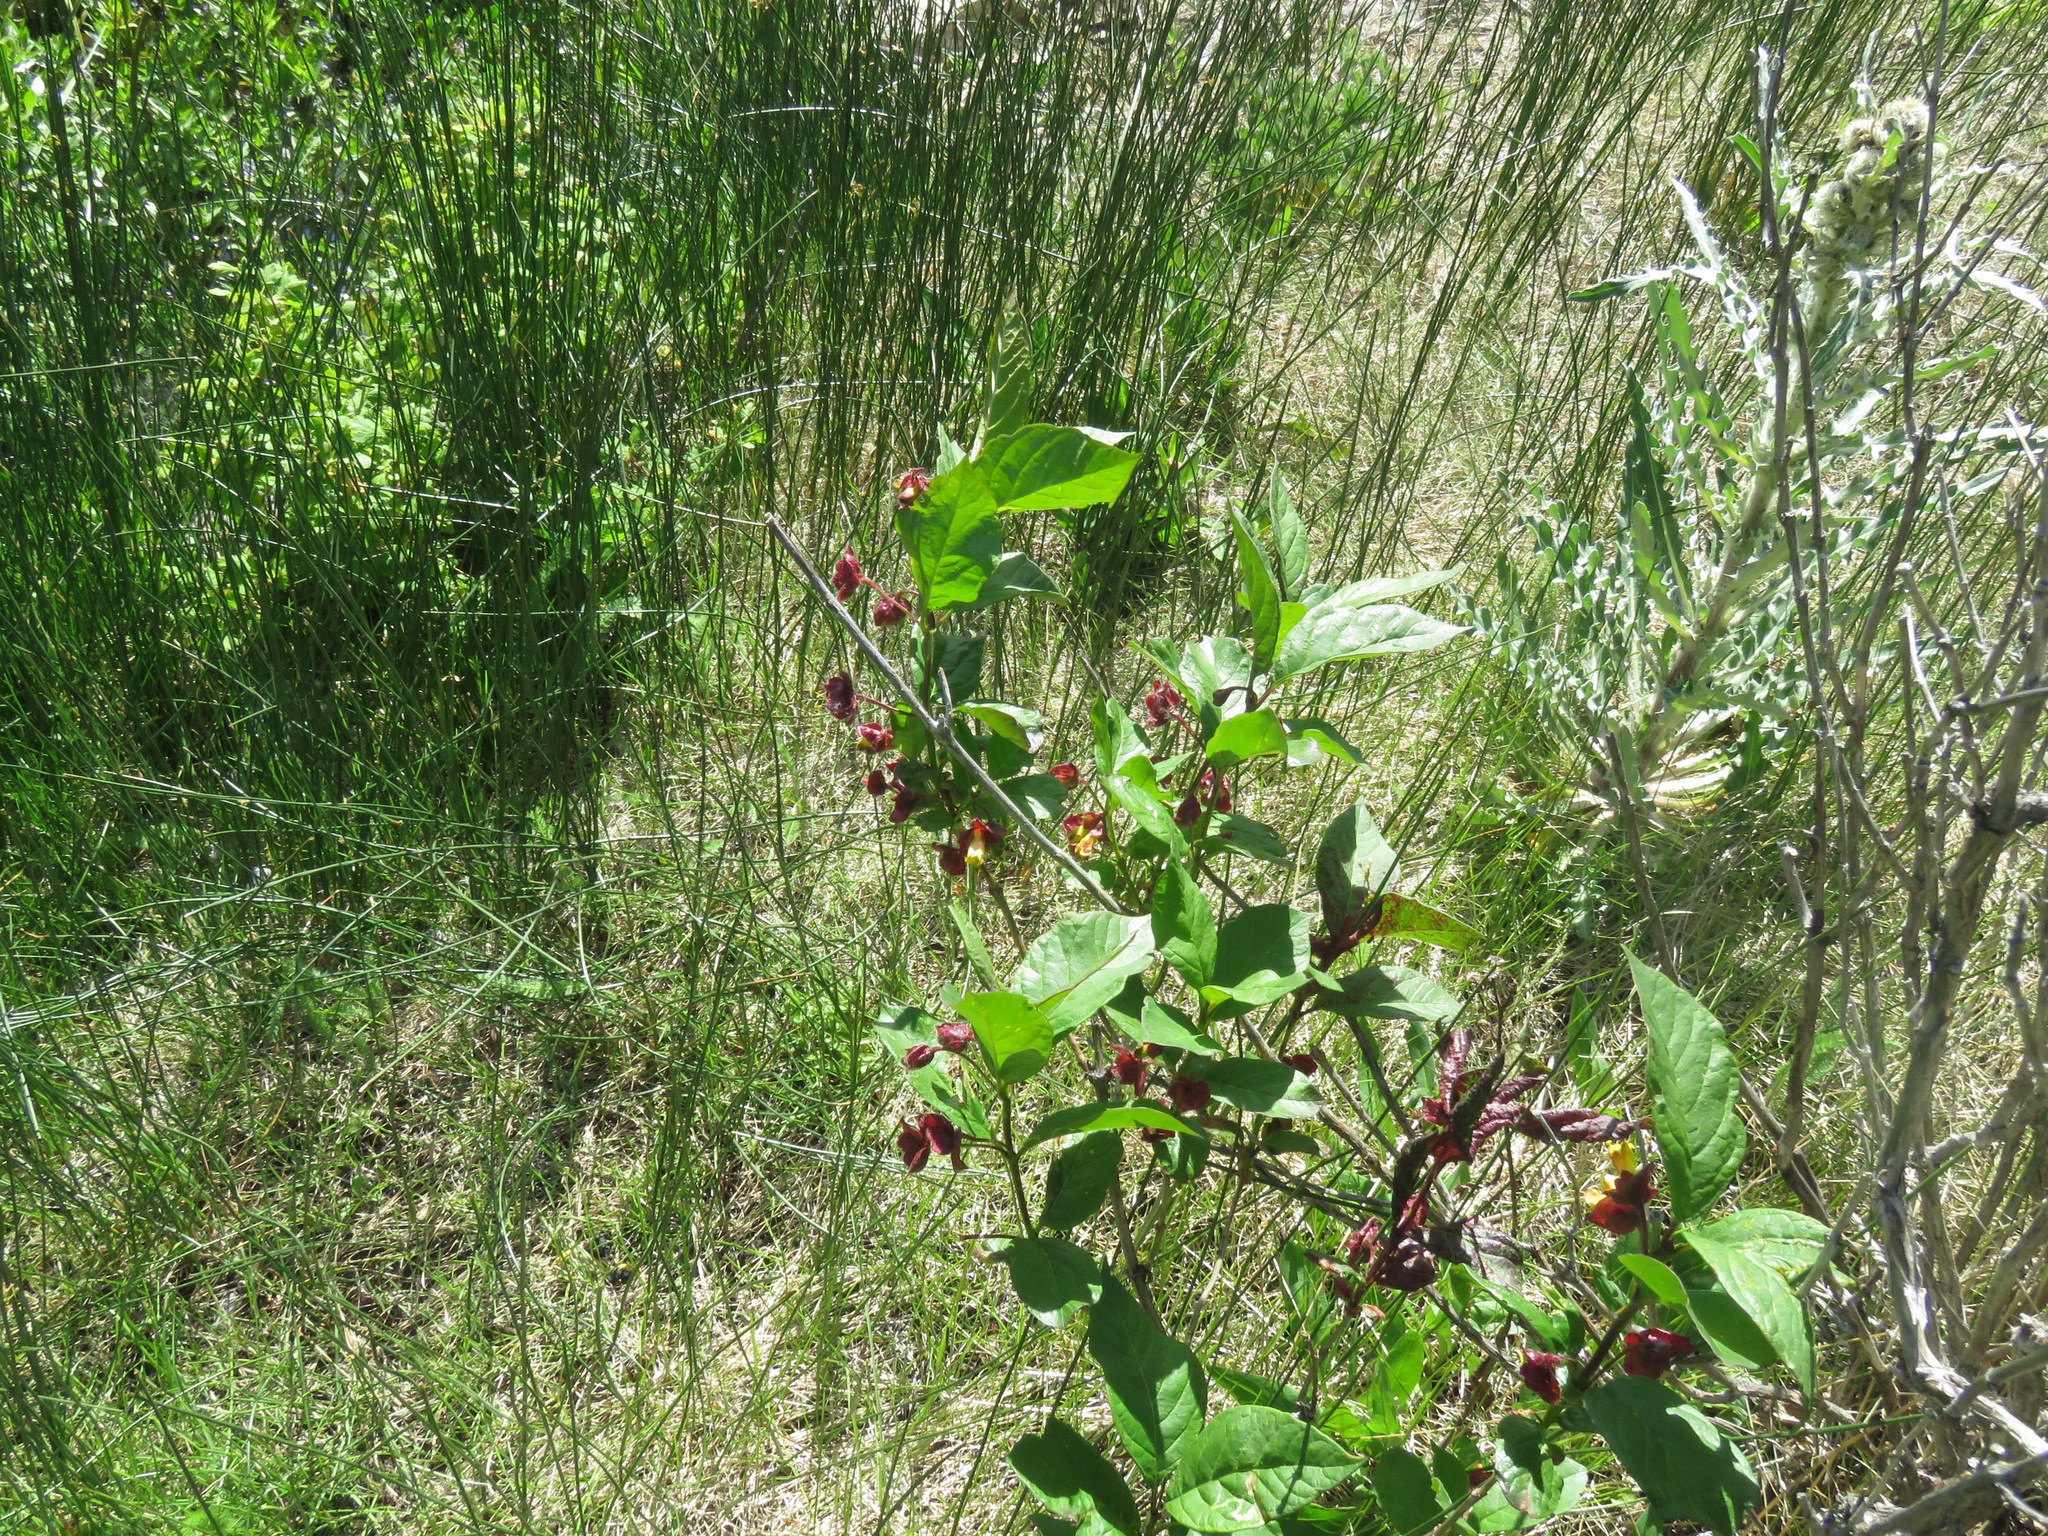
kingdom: Plantae
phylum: Tracheophyta
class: Magnoliopsida
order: Dipsacales
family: Caprifoliaceae
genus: Lonicera
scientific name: Lonicera involucrata
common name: Californian honeysuckle
